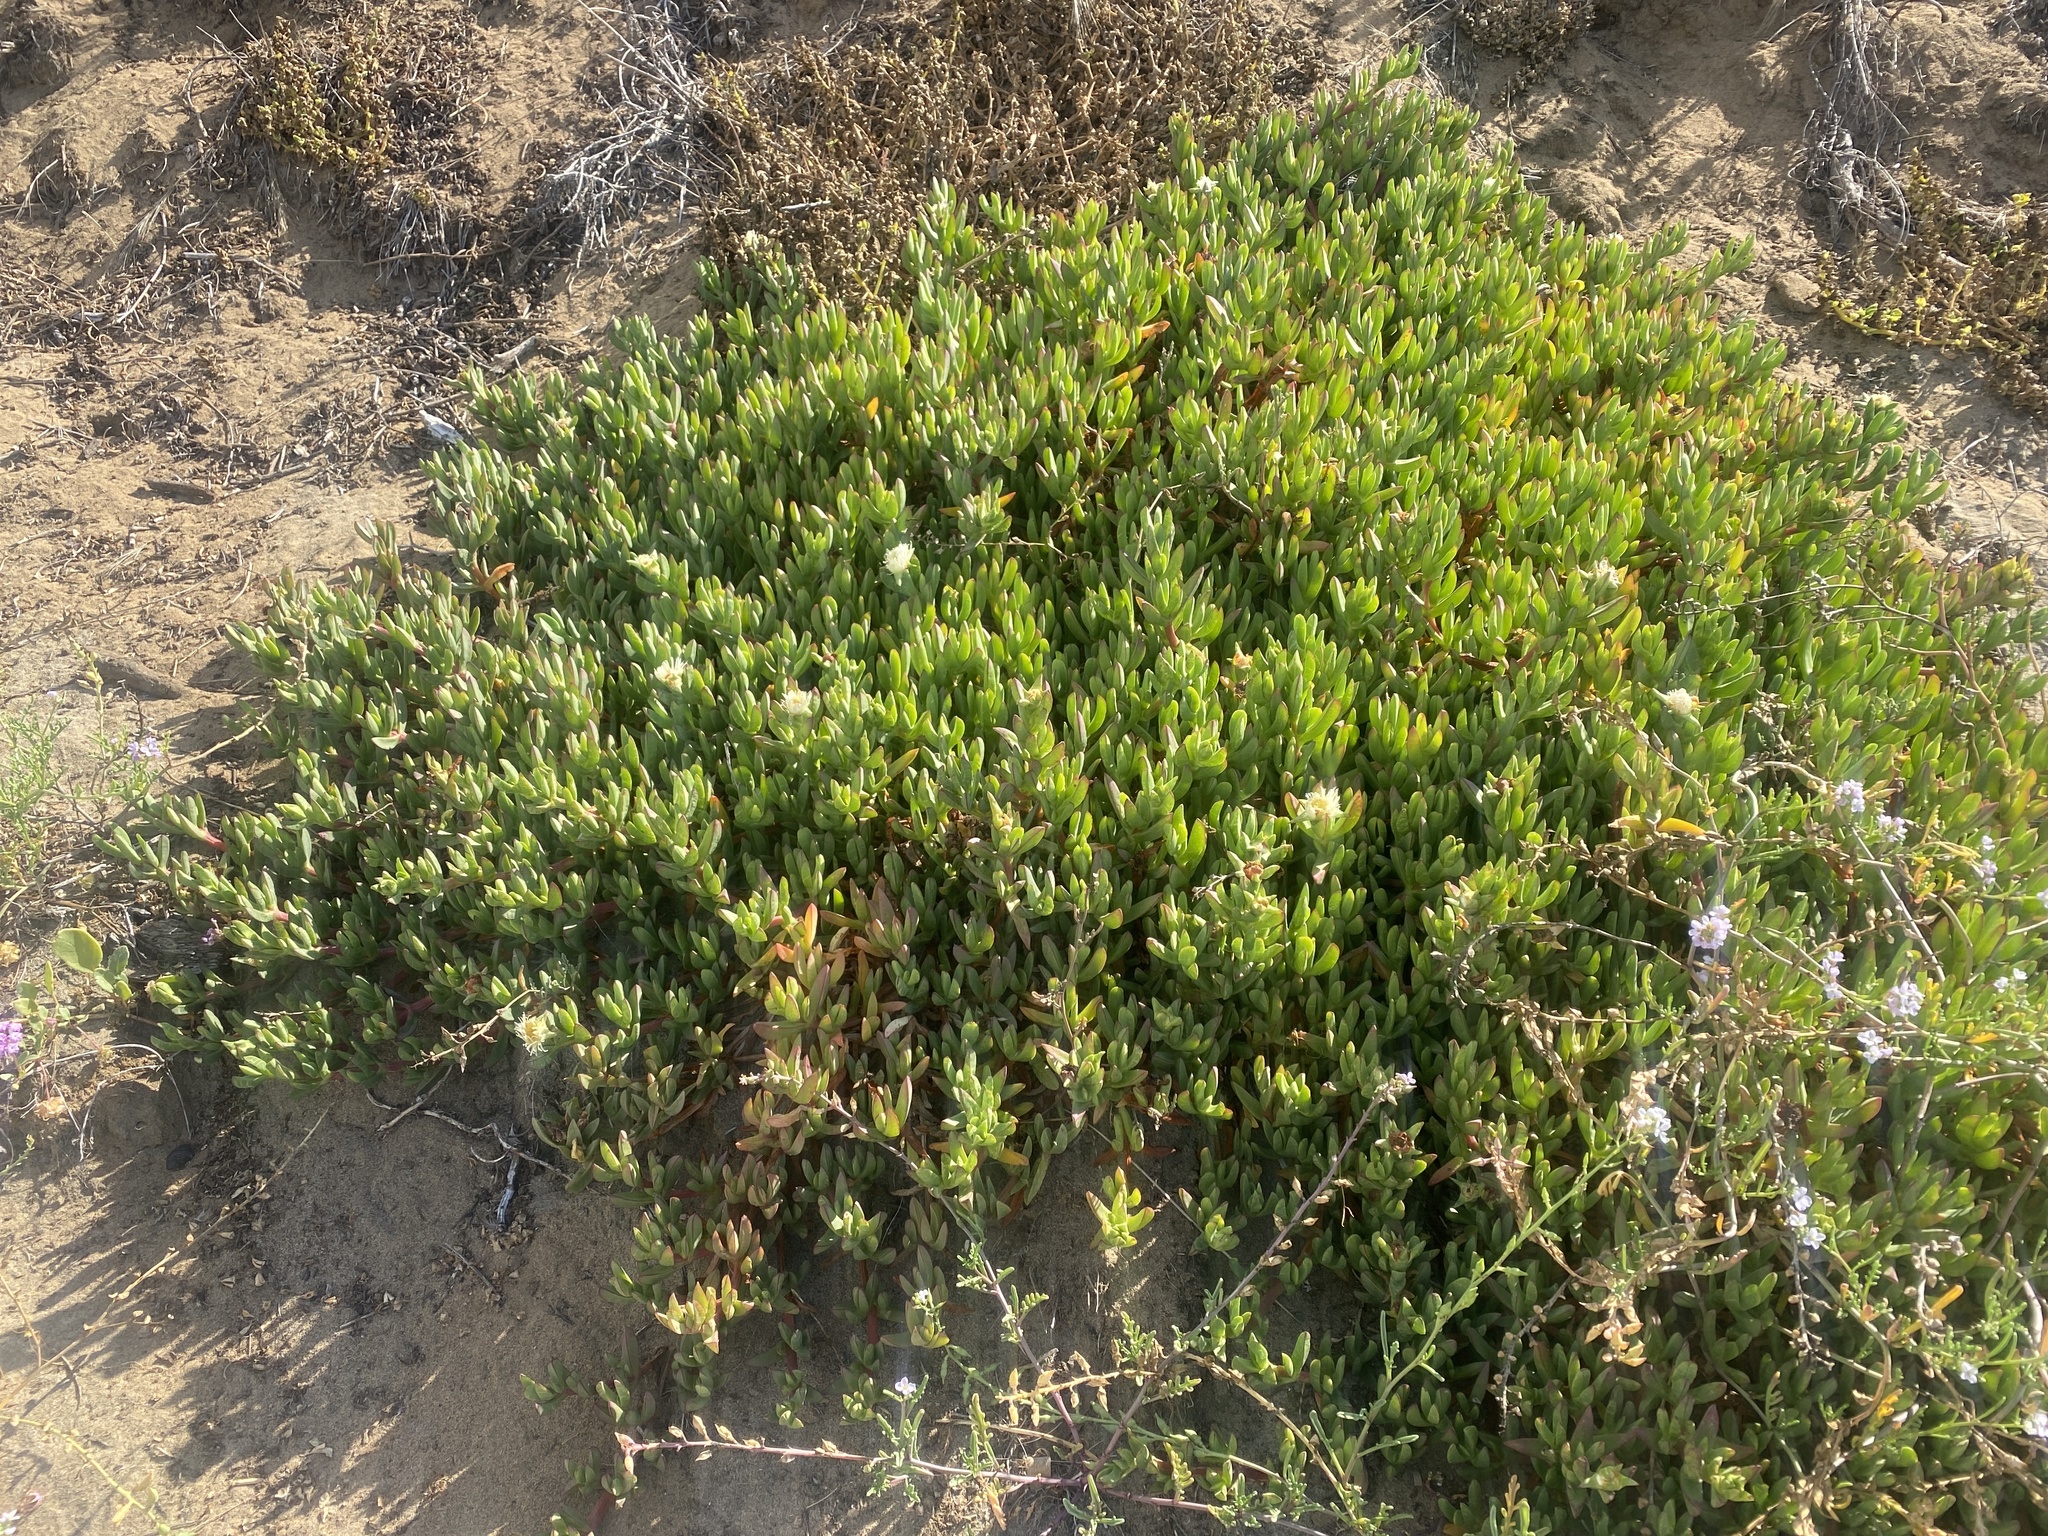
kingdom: Plantae
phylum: Tracheophyta
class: Magnoliopsida
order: Caryophyllales
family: Aizoaceae
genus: Carpobrotus
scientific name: Carpobrotus edulis
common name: Hottentot-fig
